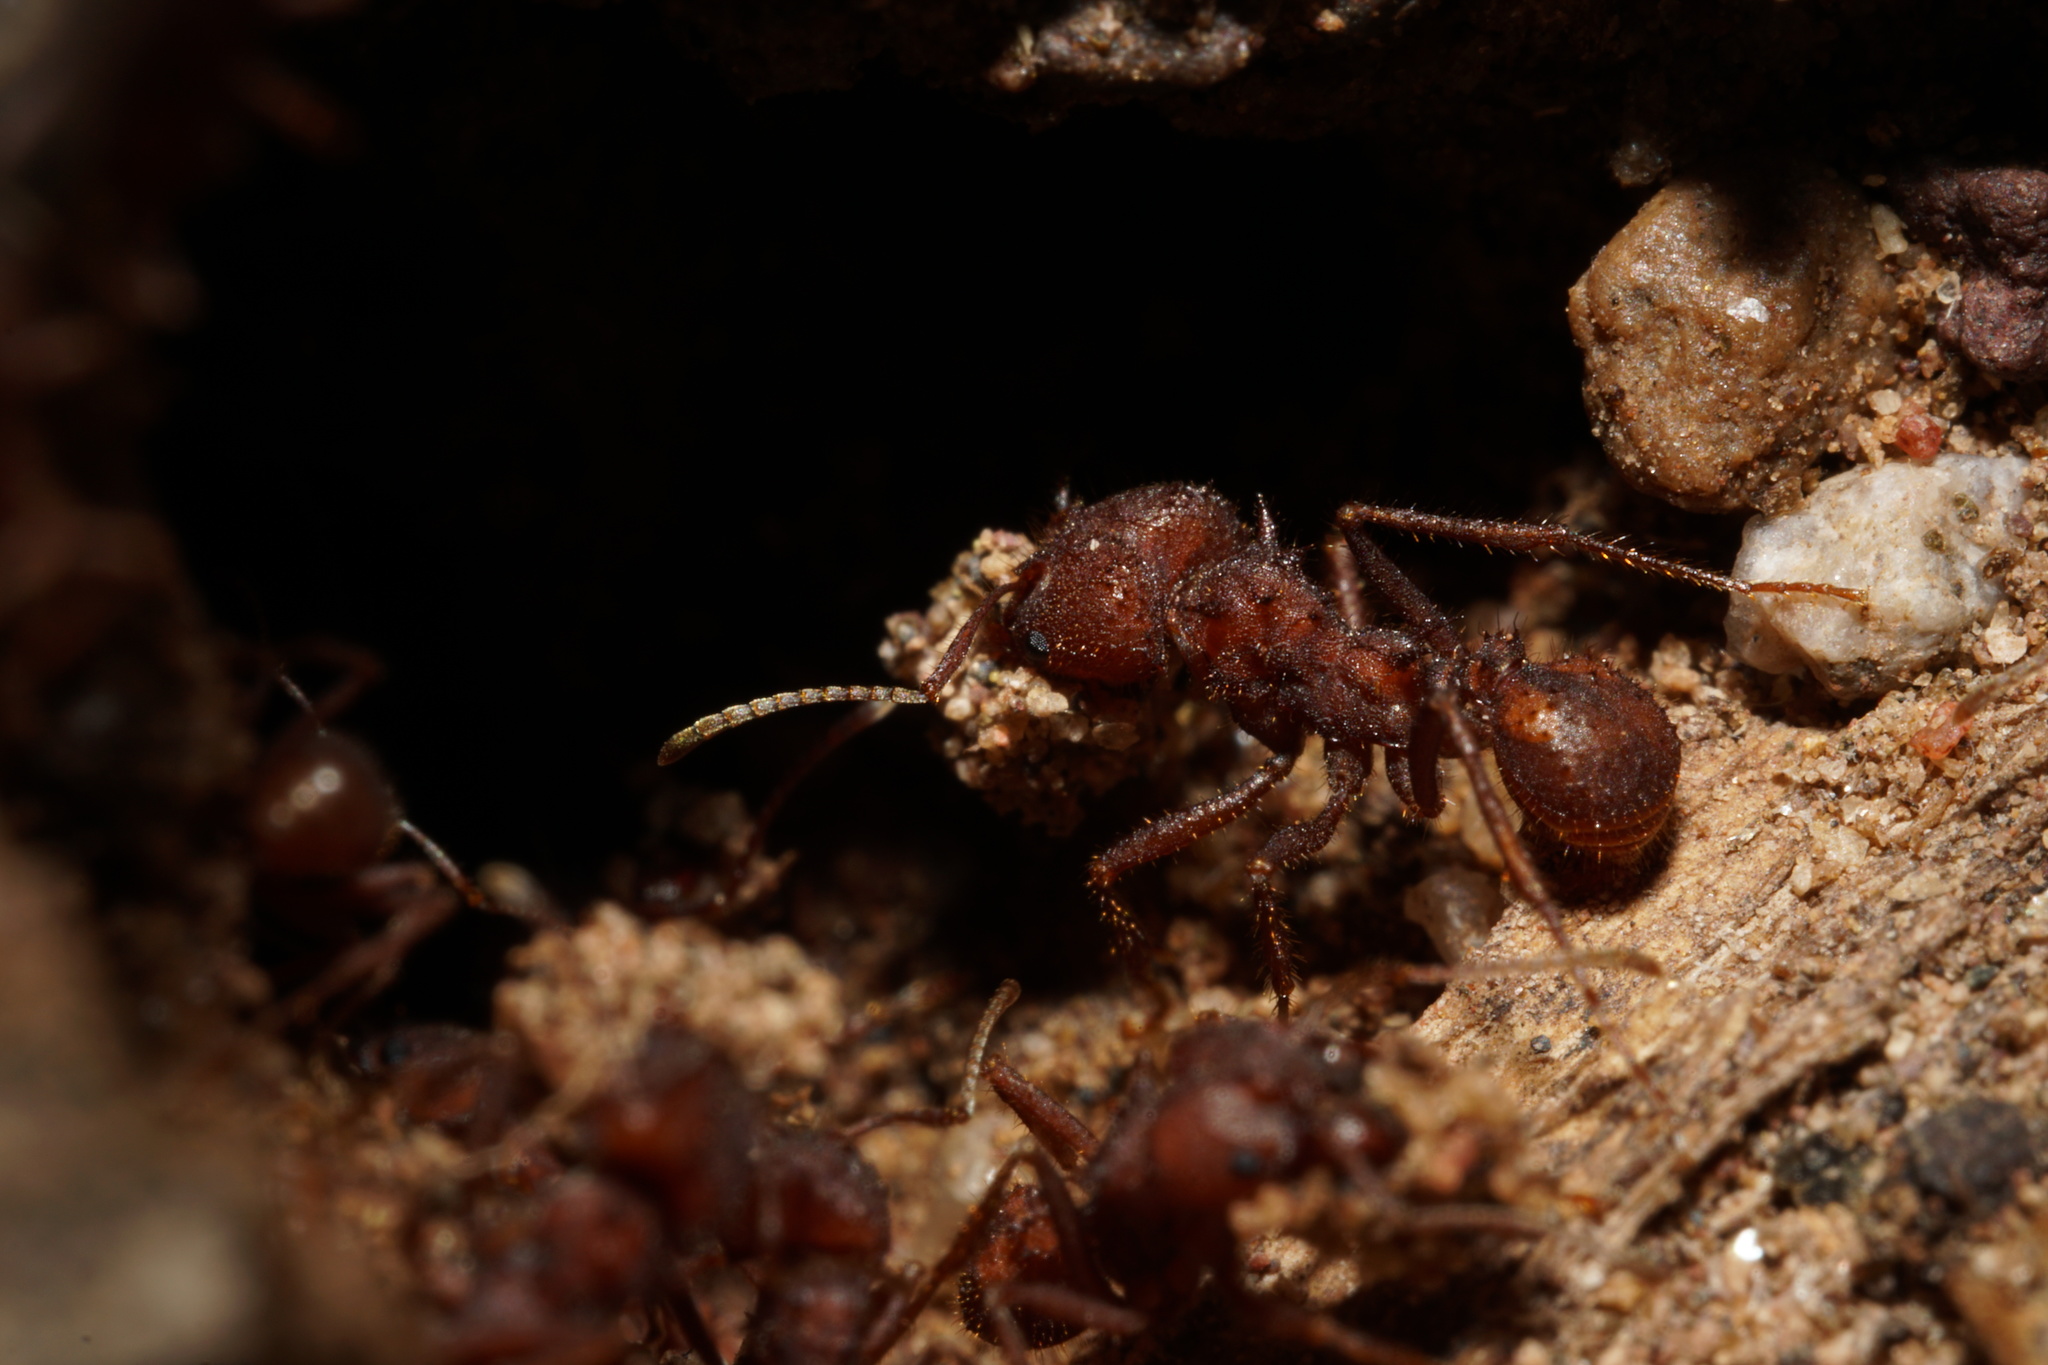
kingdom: Animalia
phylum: Arthropoda
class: Insecta
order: Hymenoptera
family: Formicidae
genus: Acromyrmex
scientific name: Acromyrmex versicolor
